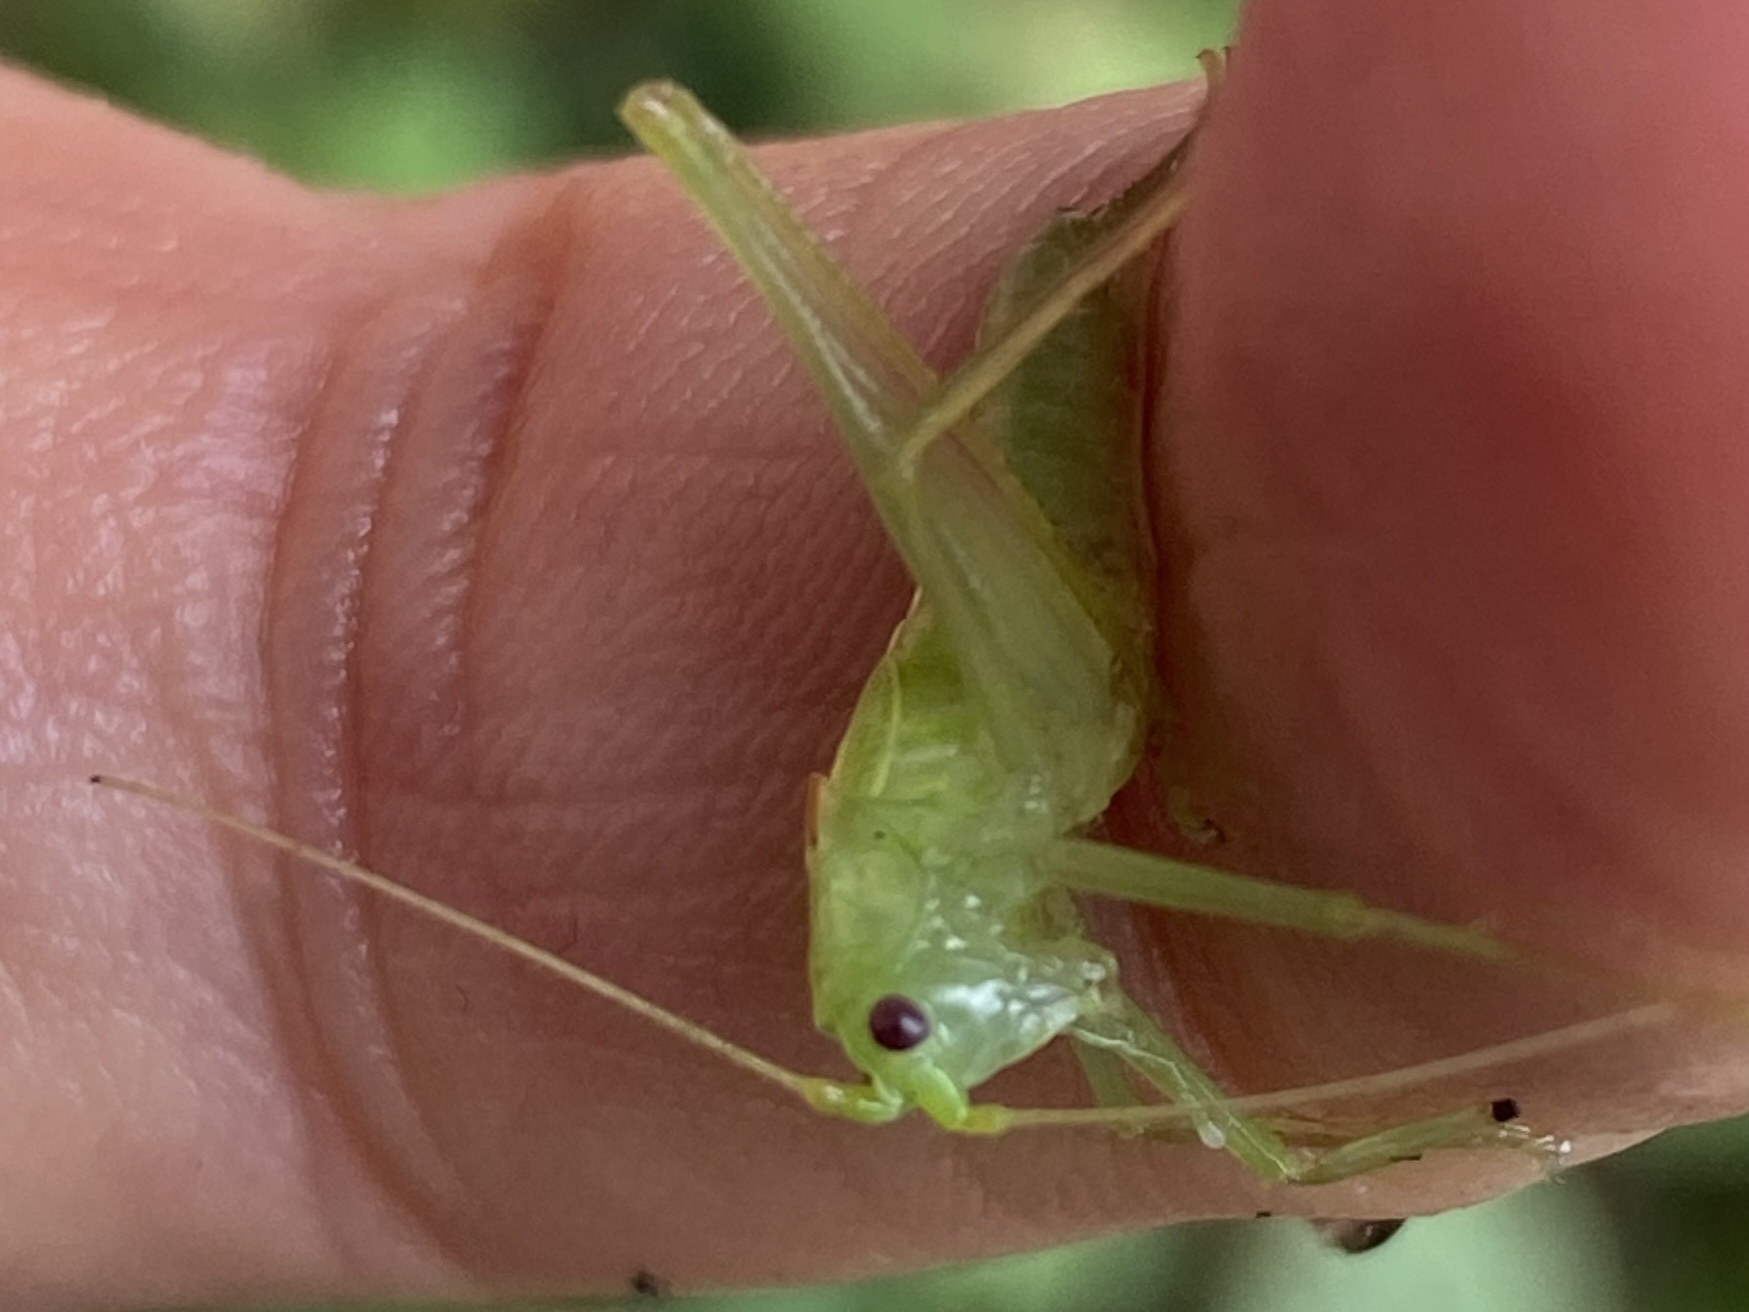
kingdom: Animalia
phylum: Arthropoda
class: Insecta
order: Orthoptera
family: Tettigoniidae
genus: Meconema
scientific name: Meconema meridionale
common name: Southern oak bush-cricket
